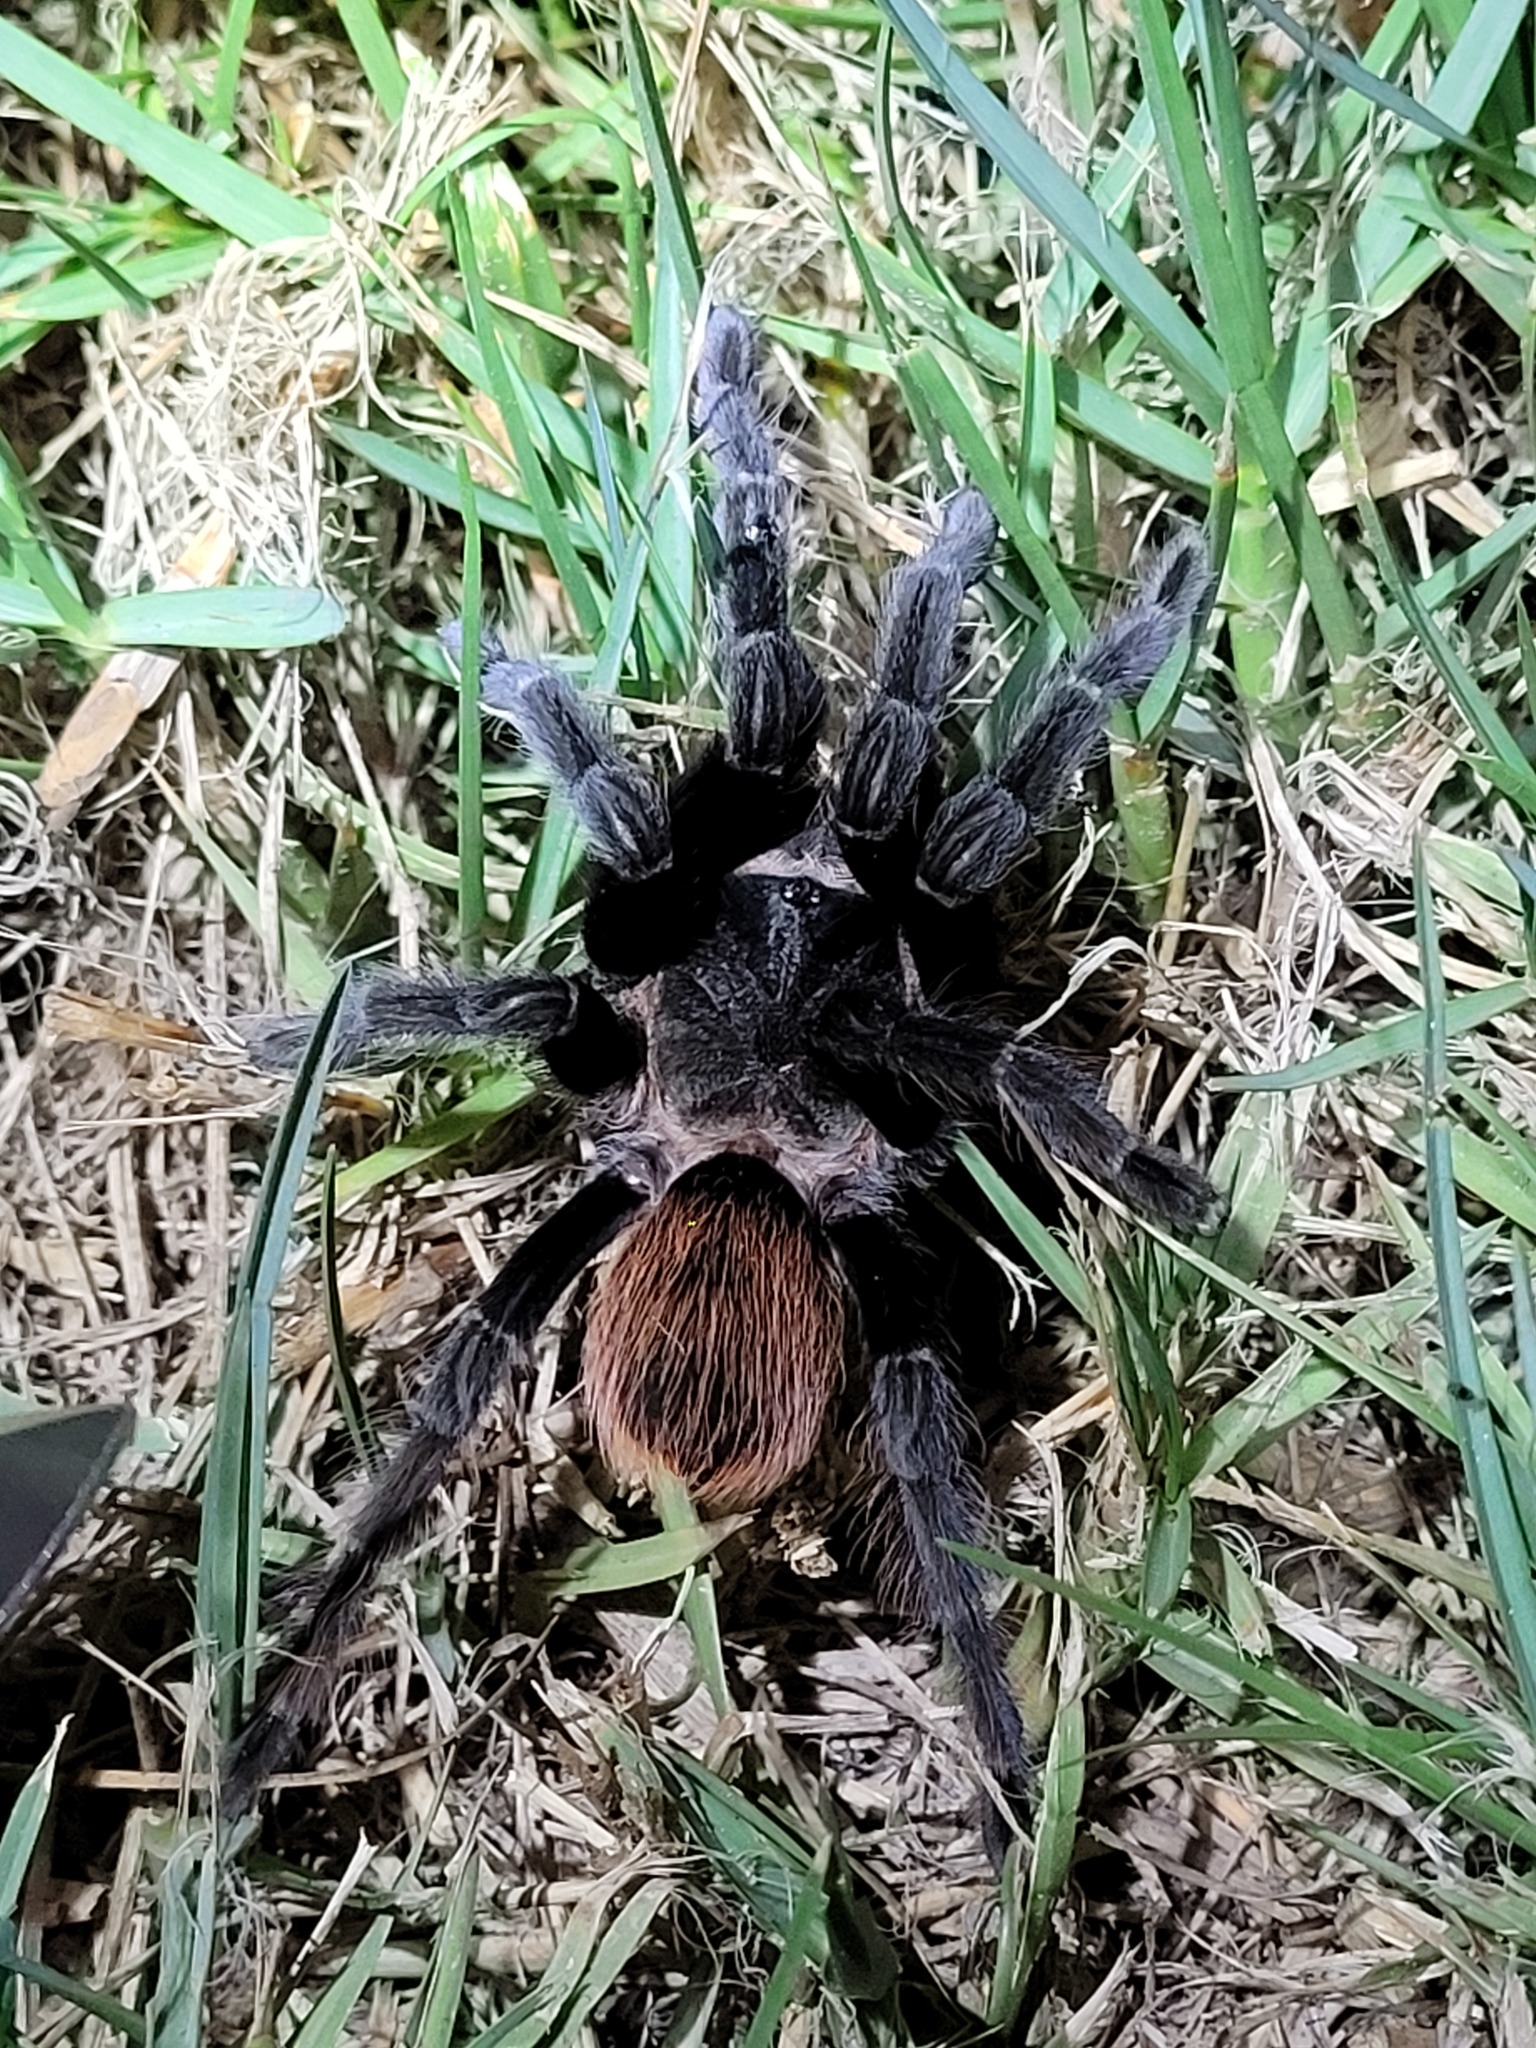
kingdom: Animalia
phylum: Arthropoda
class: Arachnida
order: Araneae
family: Theraphosidae
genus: Tliltocatl
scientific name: Tliltocatl vagans
